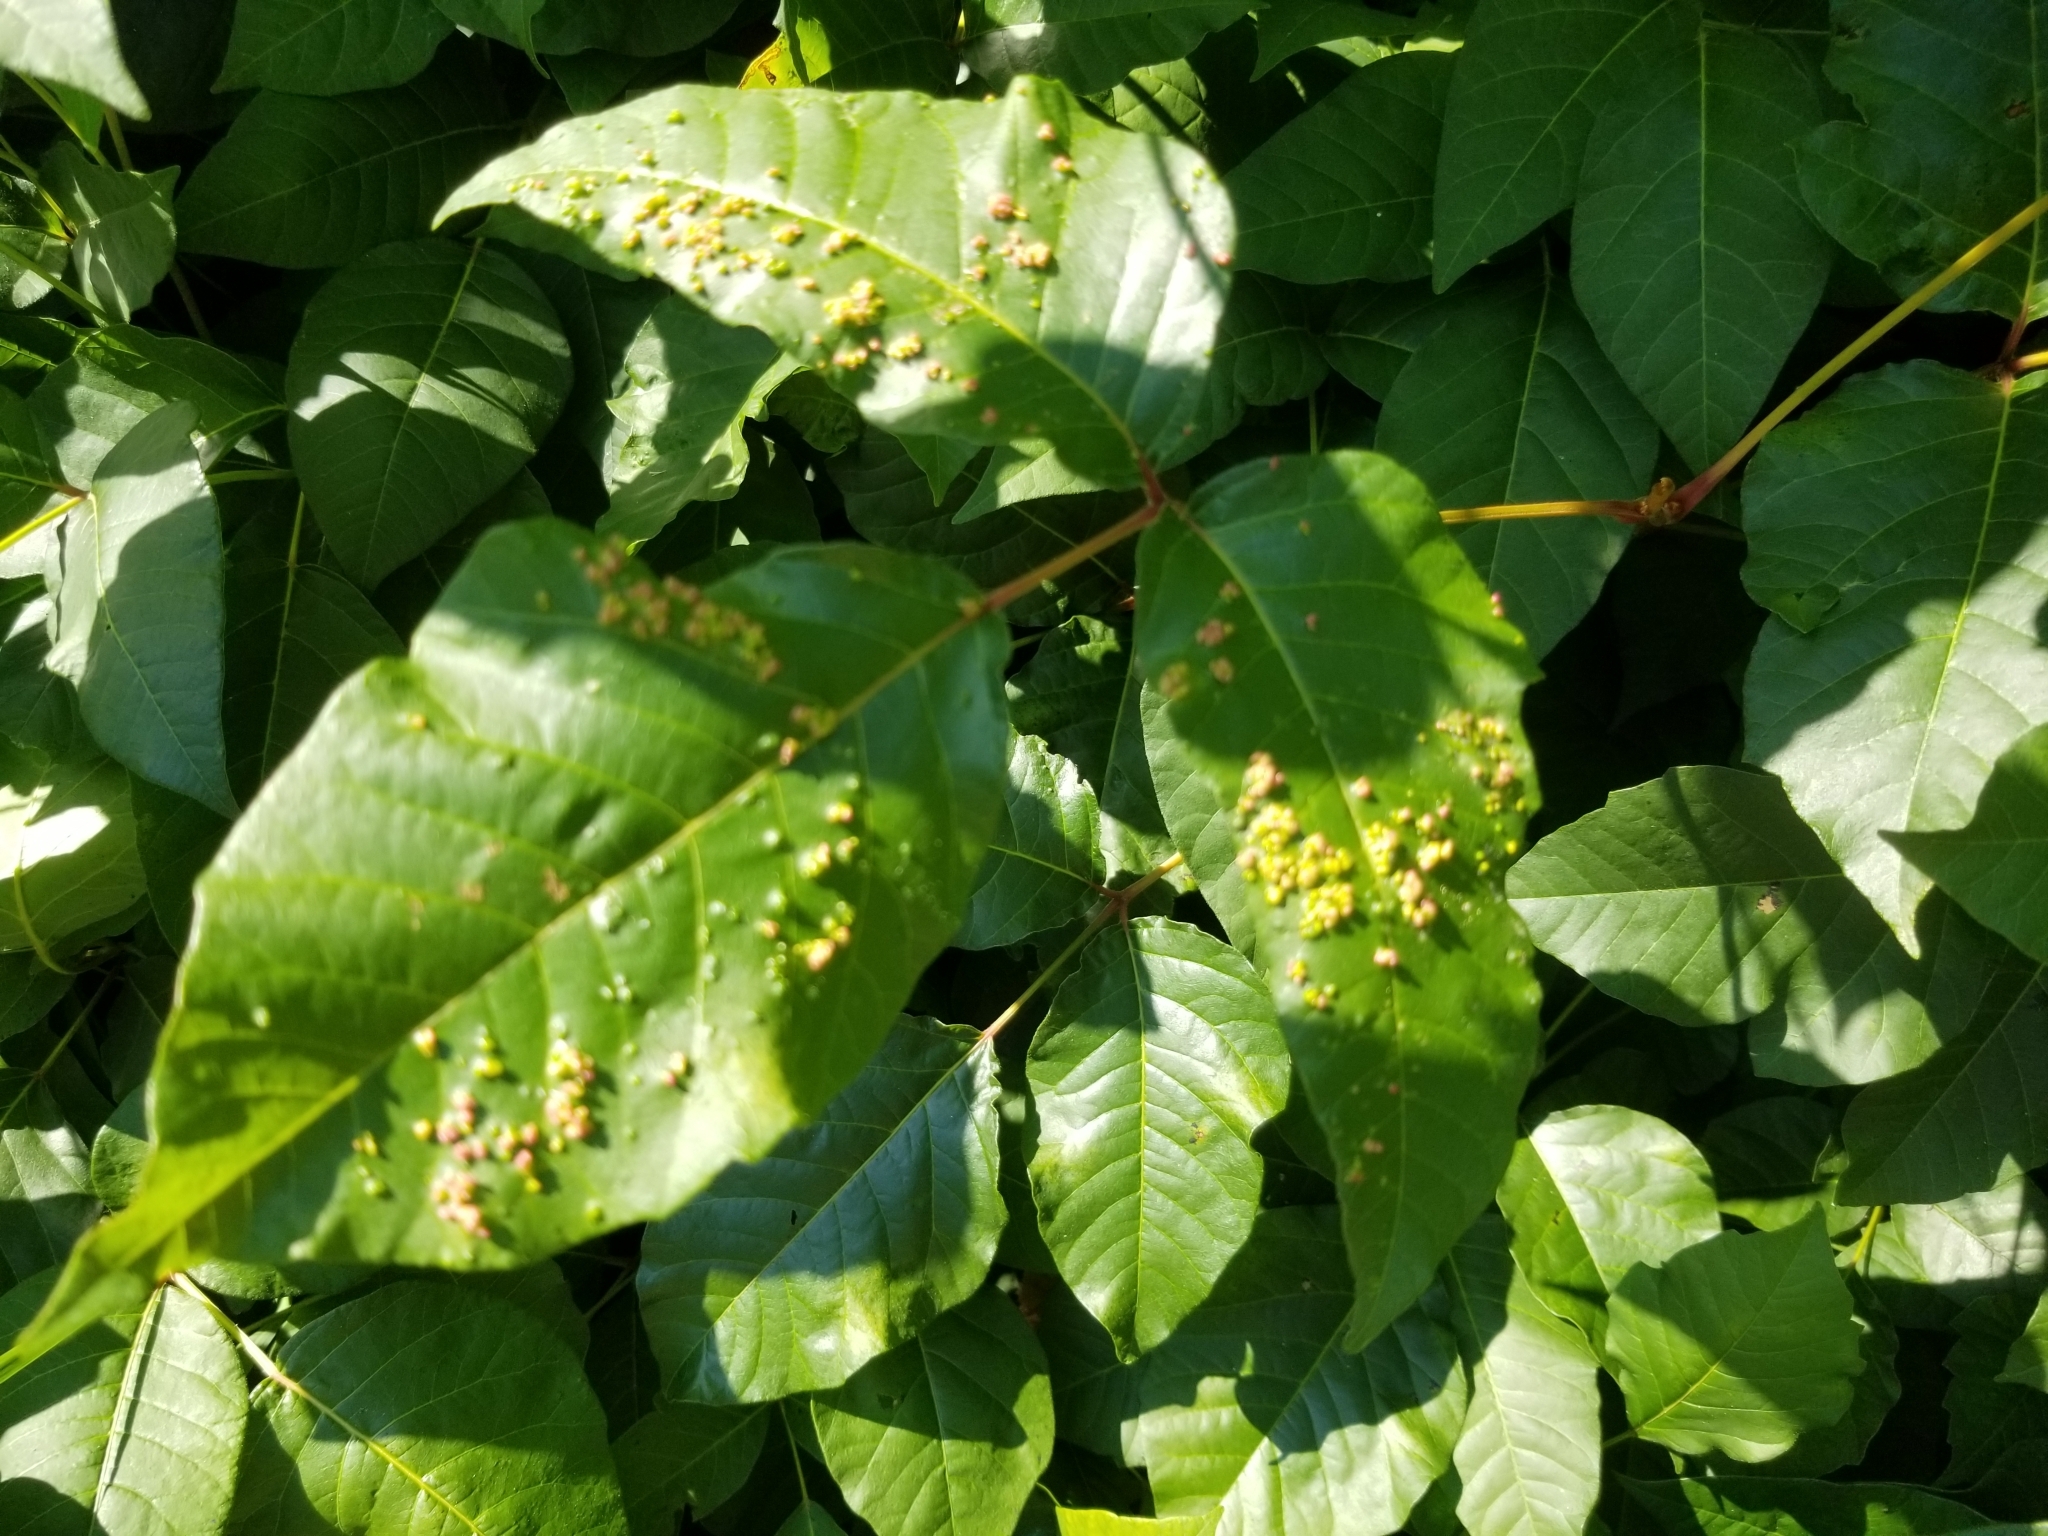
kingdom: Animalia
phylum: Arthropoda
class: Arachnida
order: Trombidiformes
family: Eriophyidae
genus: Aculops
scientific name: Aculops
